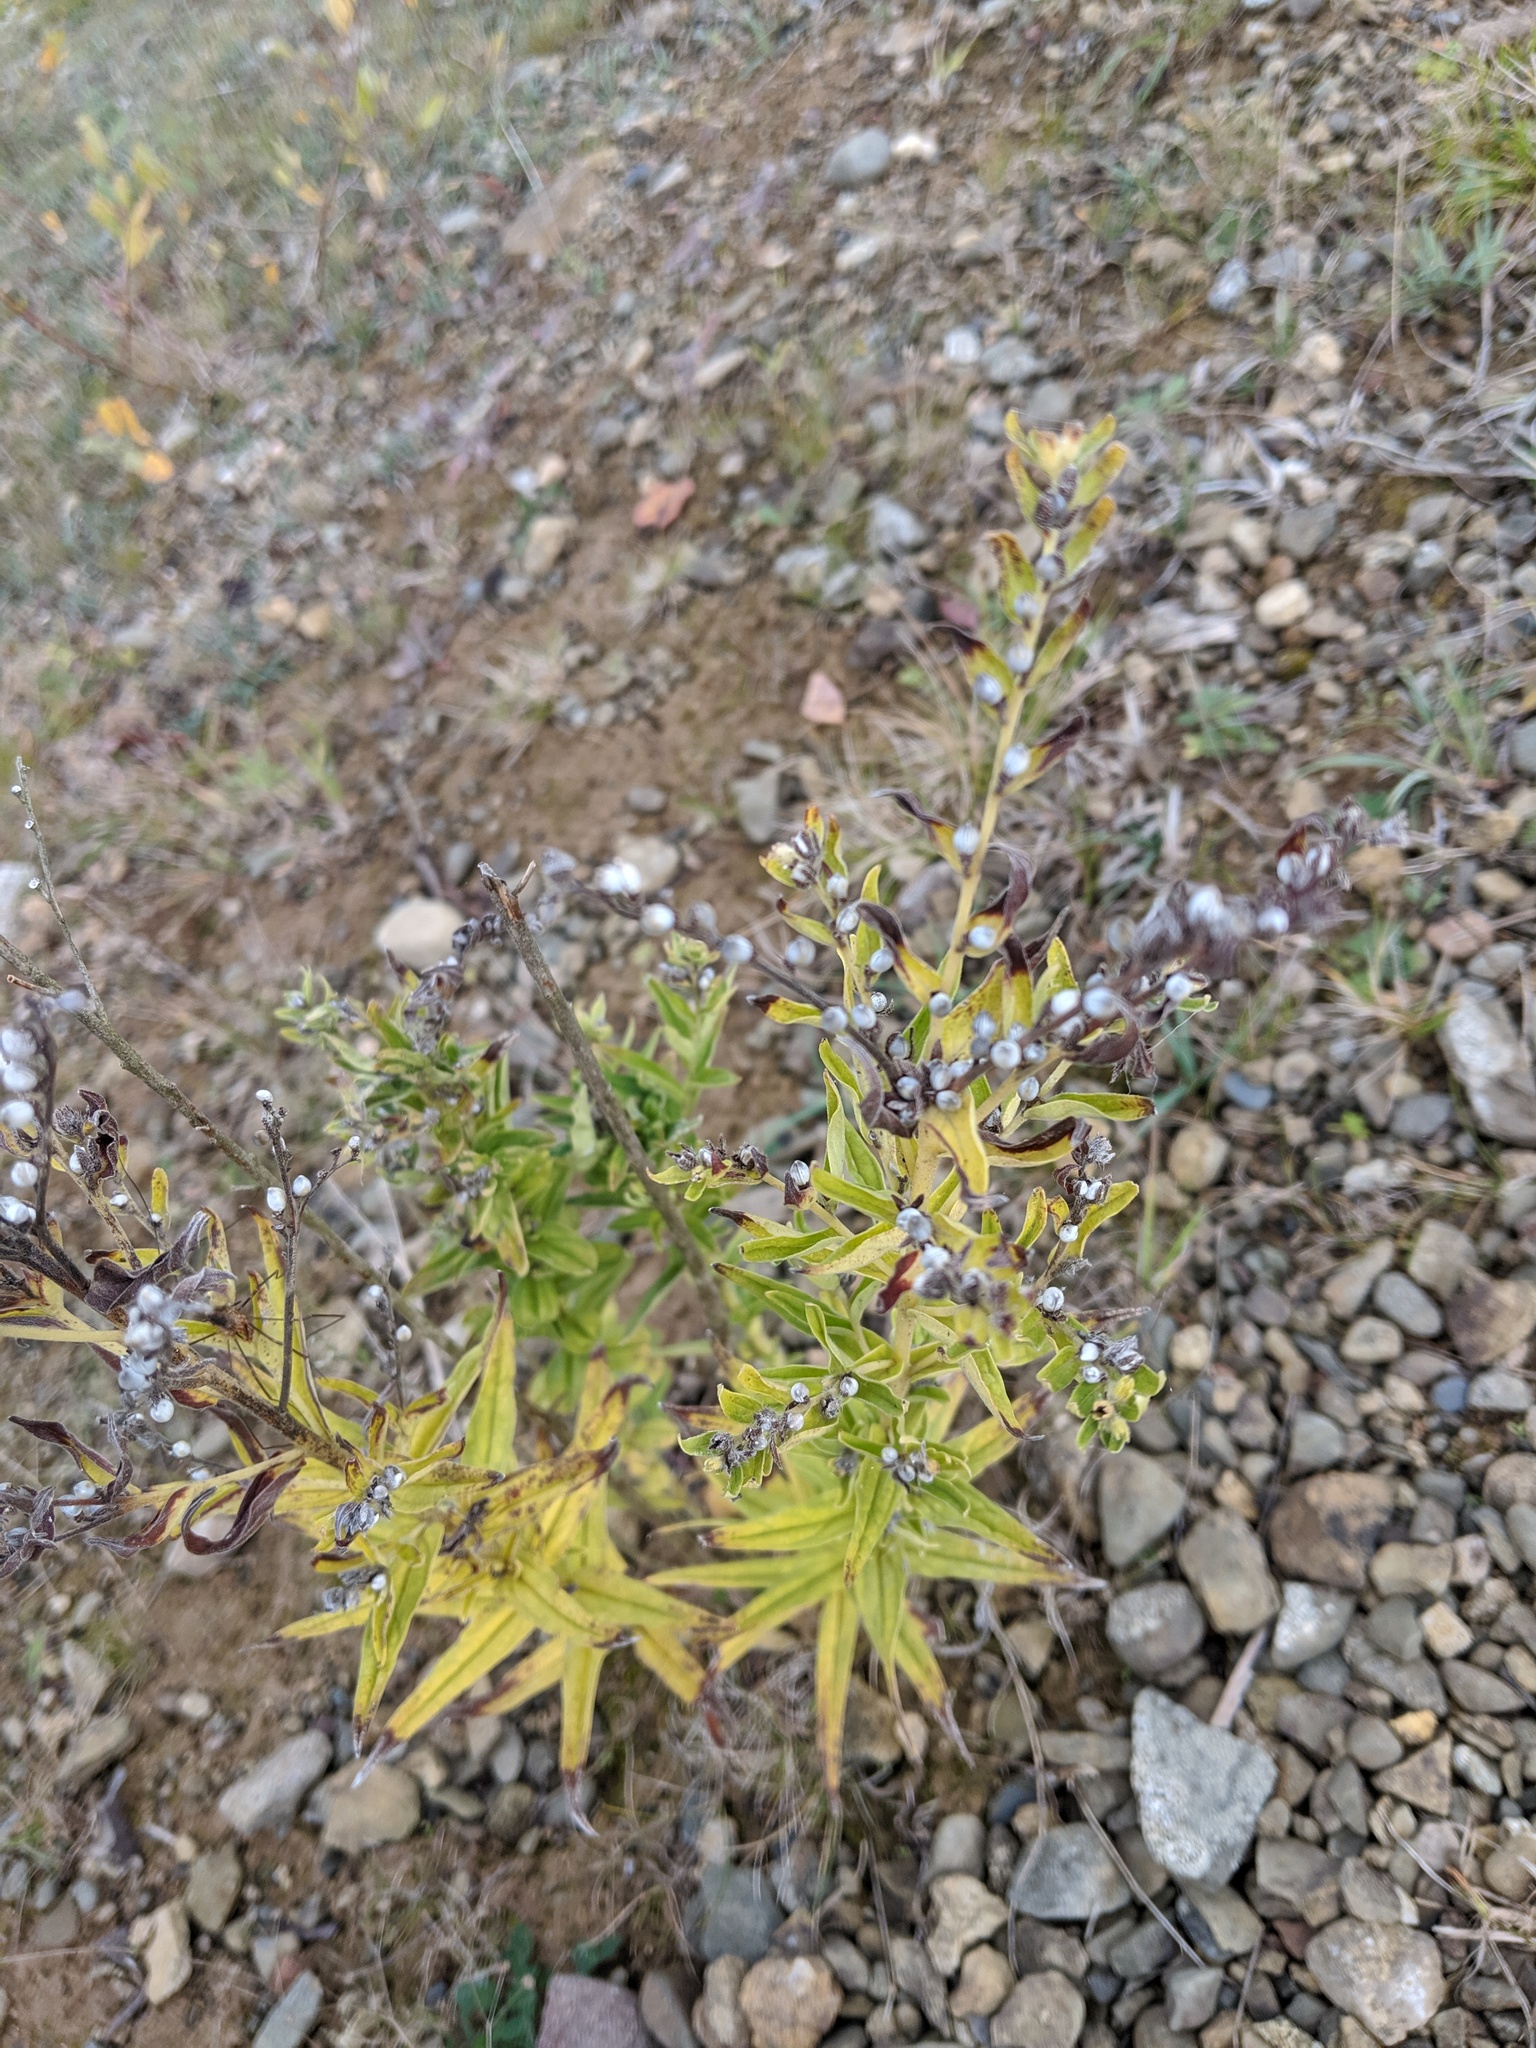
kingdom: Plantae
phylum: Tracheophyta
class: Magnoliopsida
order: Boraginales
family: Boraginaceae
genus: Lithospermum
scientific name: Lithospermum officinale
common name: Common gromwell
